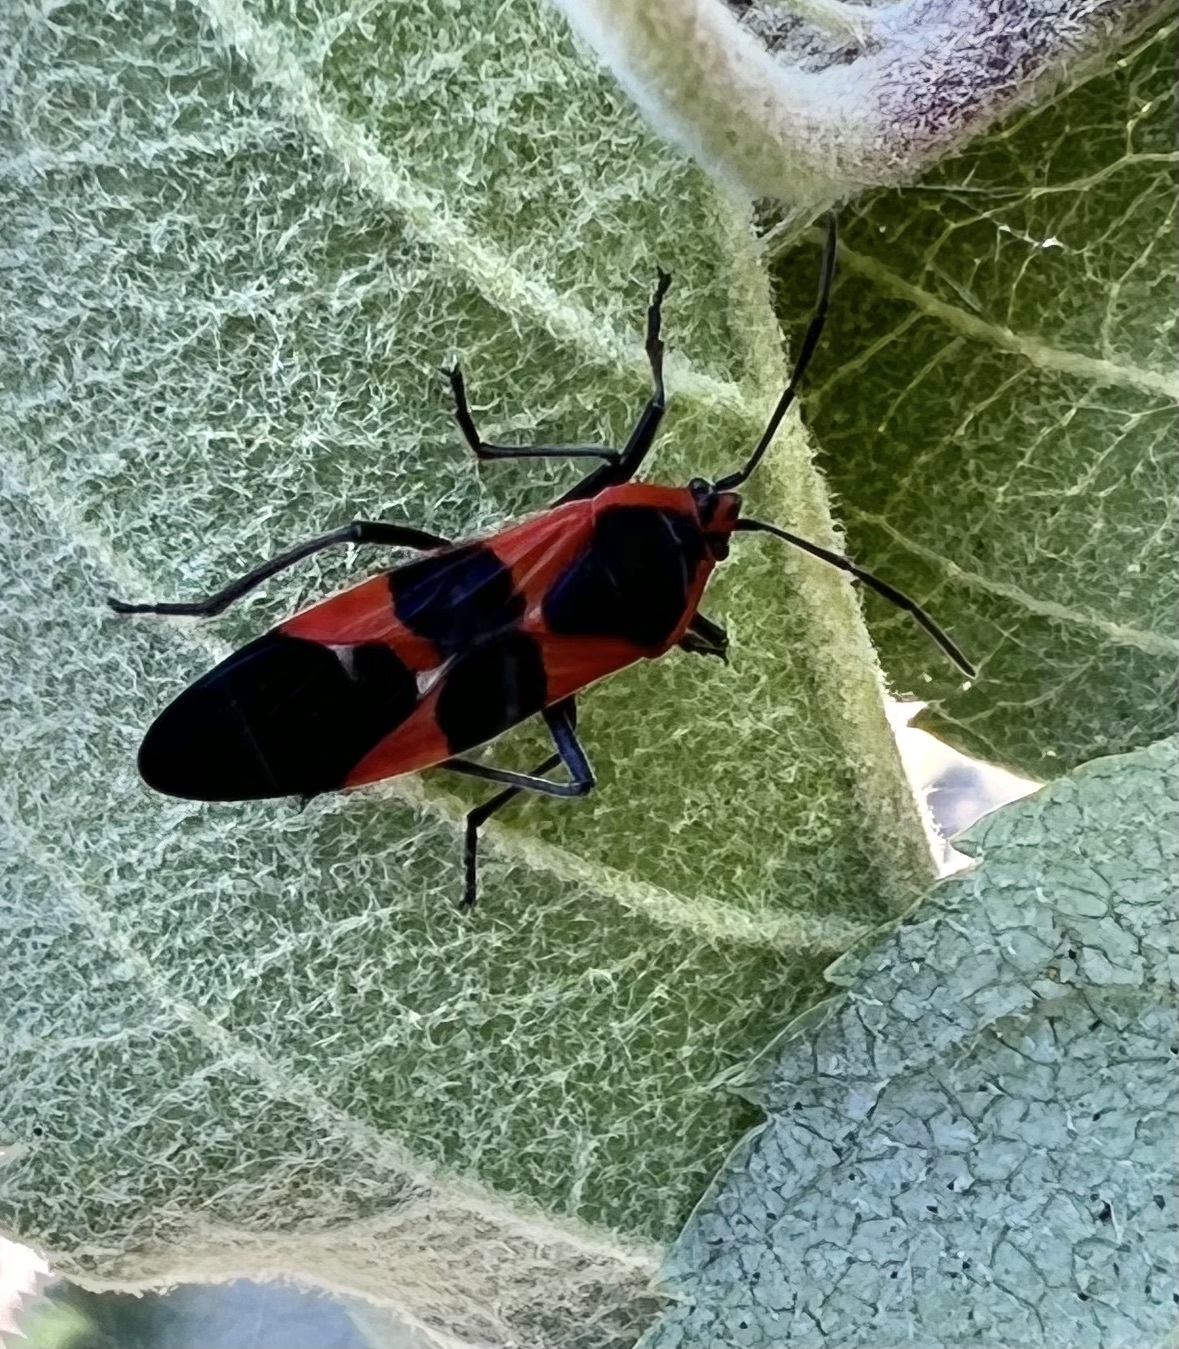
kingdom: Animalia
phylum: Arthropoda
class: Insecta
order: Hemiptera
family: Lygaeidae
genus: Oncopeltus
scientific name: Oncopeltus fasciatus
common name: Large milkweed bug
